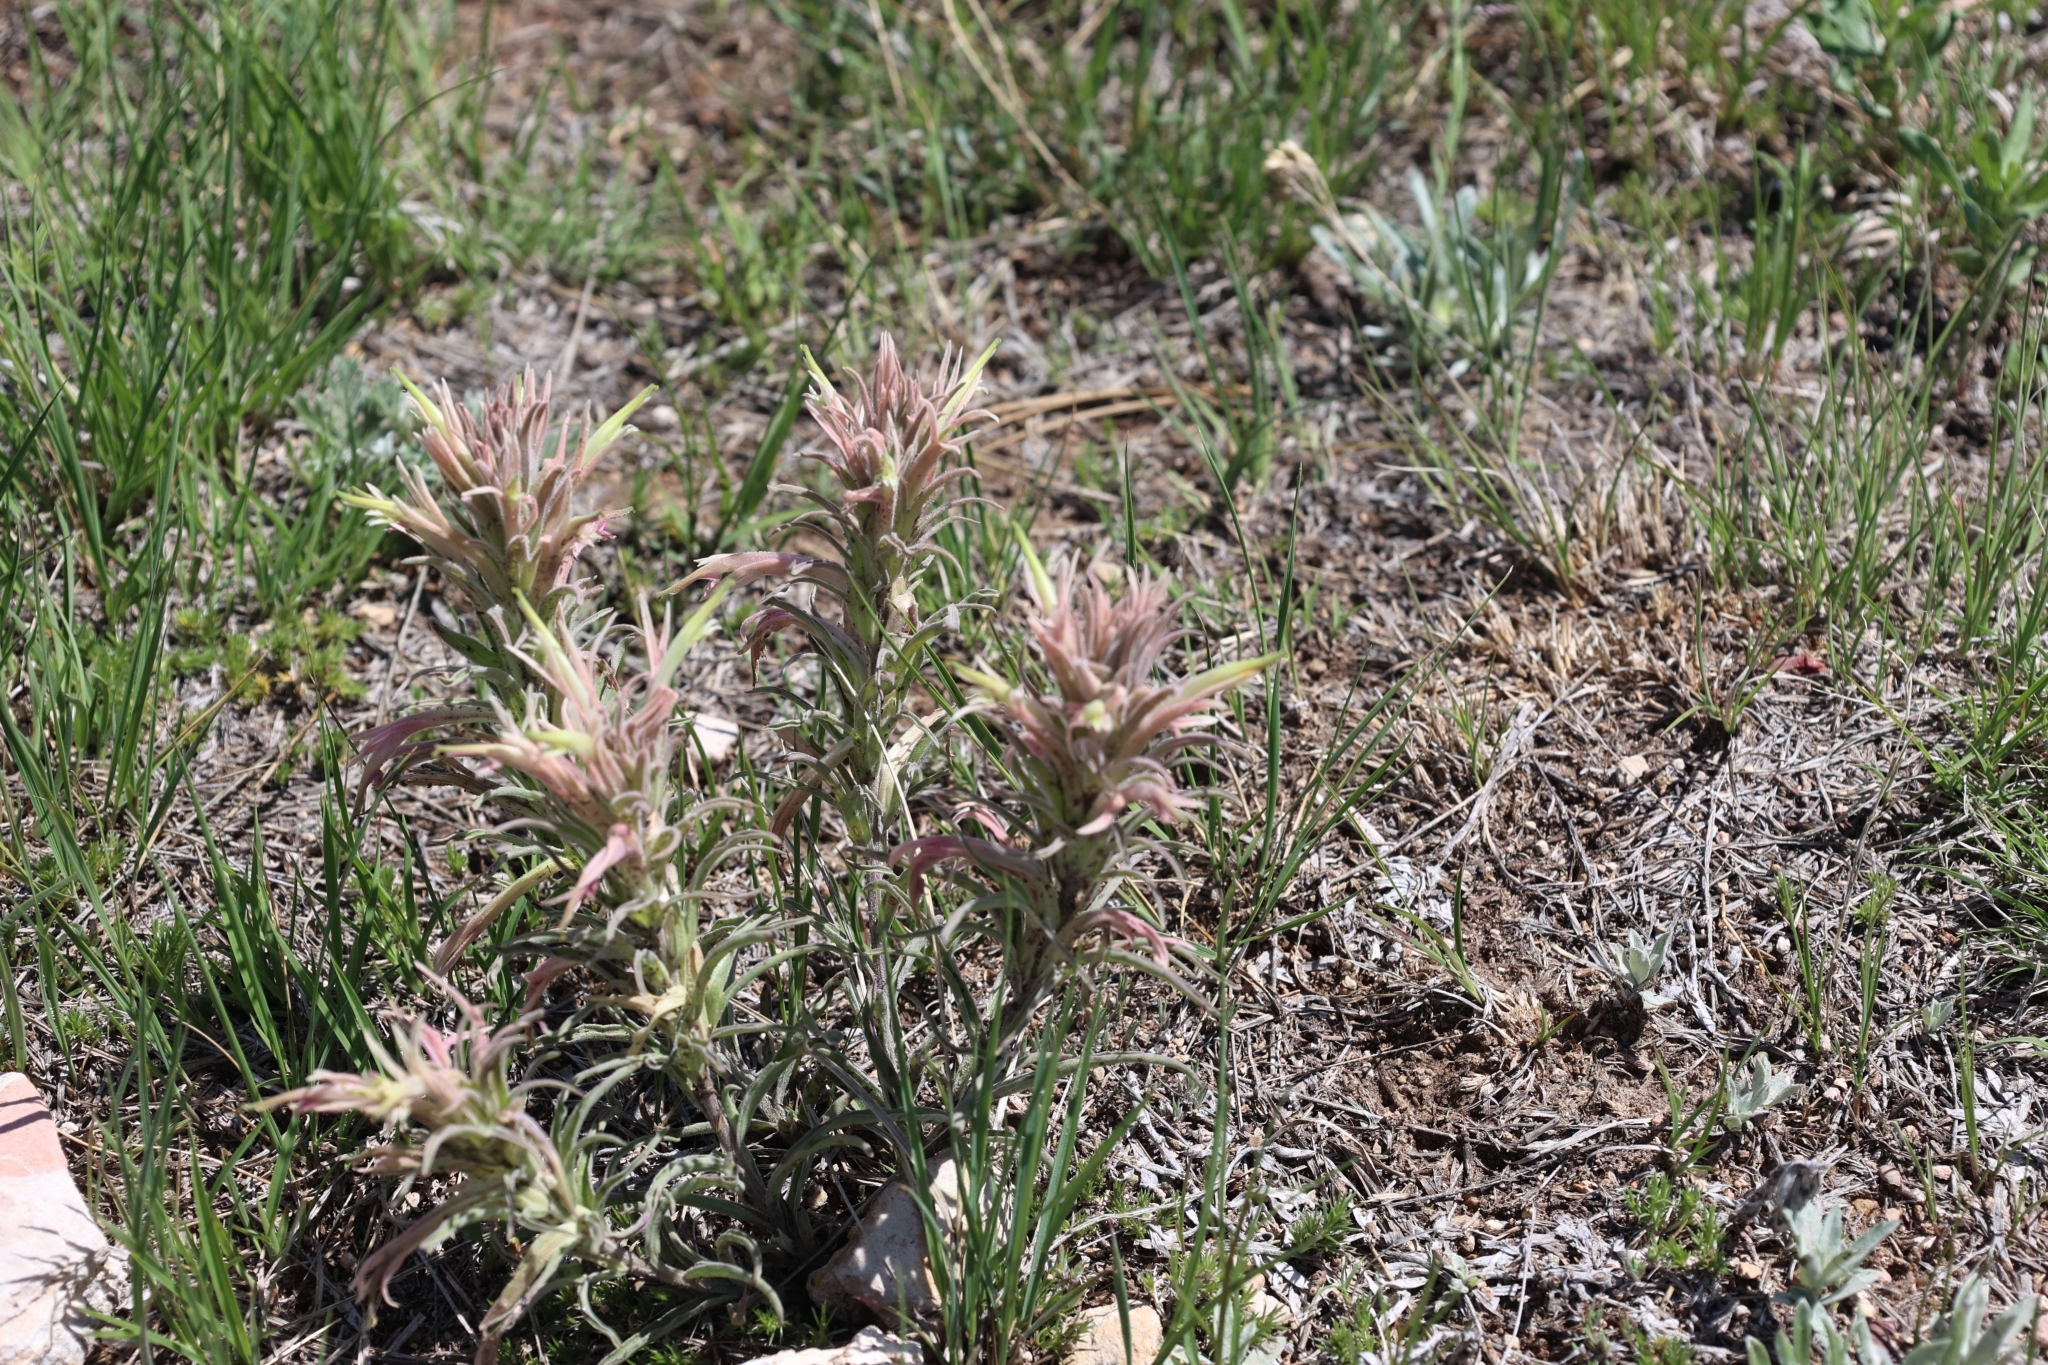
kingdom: Plantae
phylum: Tracheophyta
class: Magnoliopsida
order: Lamiales
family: Orobanchaceae
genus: Castilleja
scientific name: Castilleja sessiliflora
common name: Downy paintbrush
